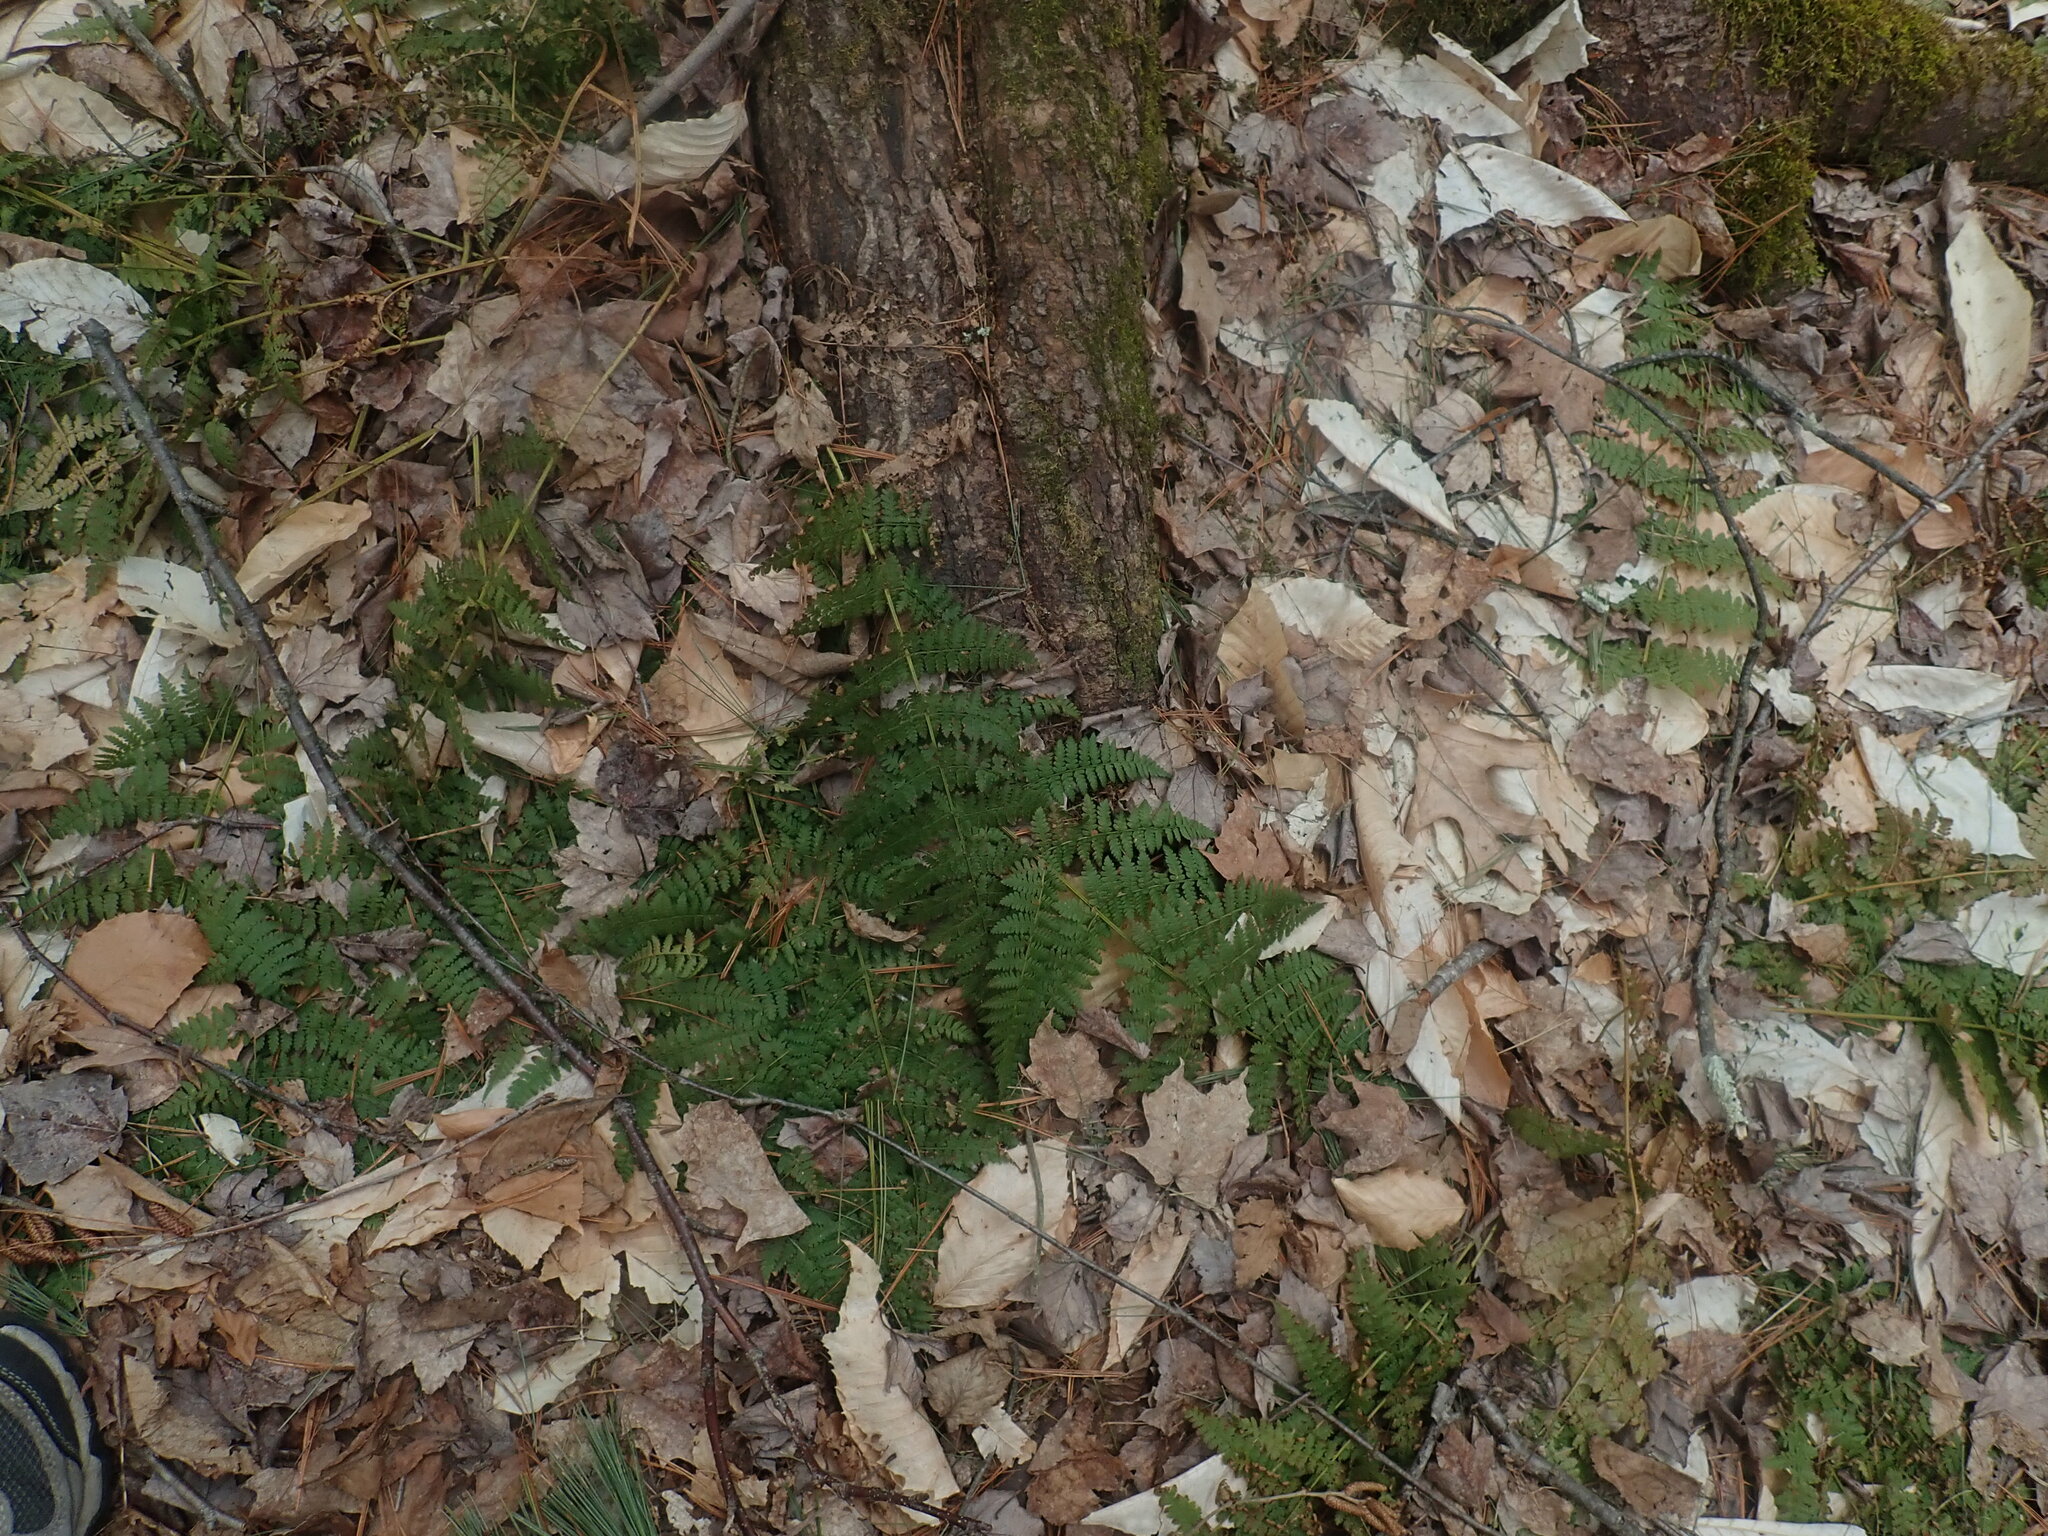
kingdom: Plantae
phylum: Tracheophyta
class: Polypodiopsida
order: Polypodiales
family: Dryopteridaceae
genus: Dryopteris
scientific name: Dryopteris intermedia
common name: Evergreen wood fern
